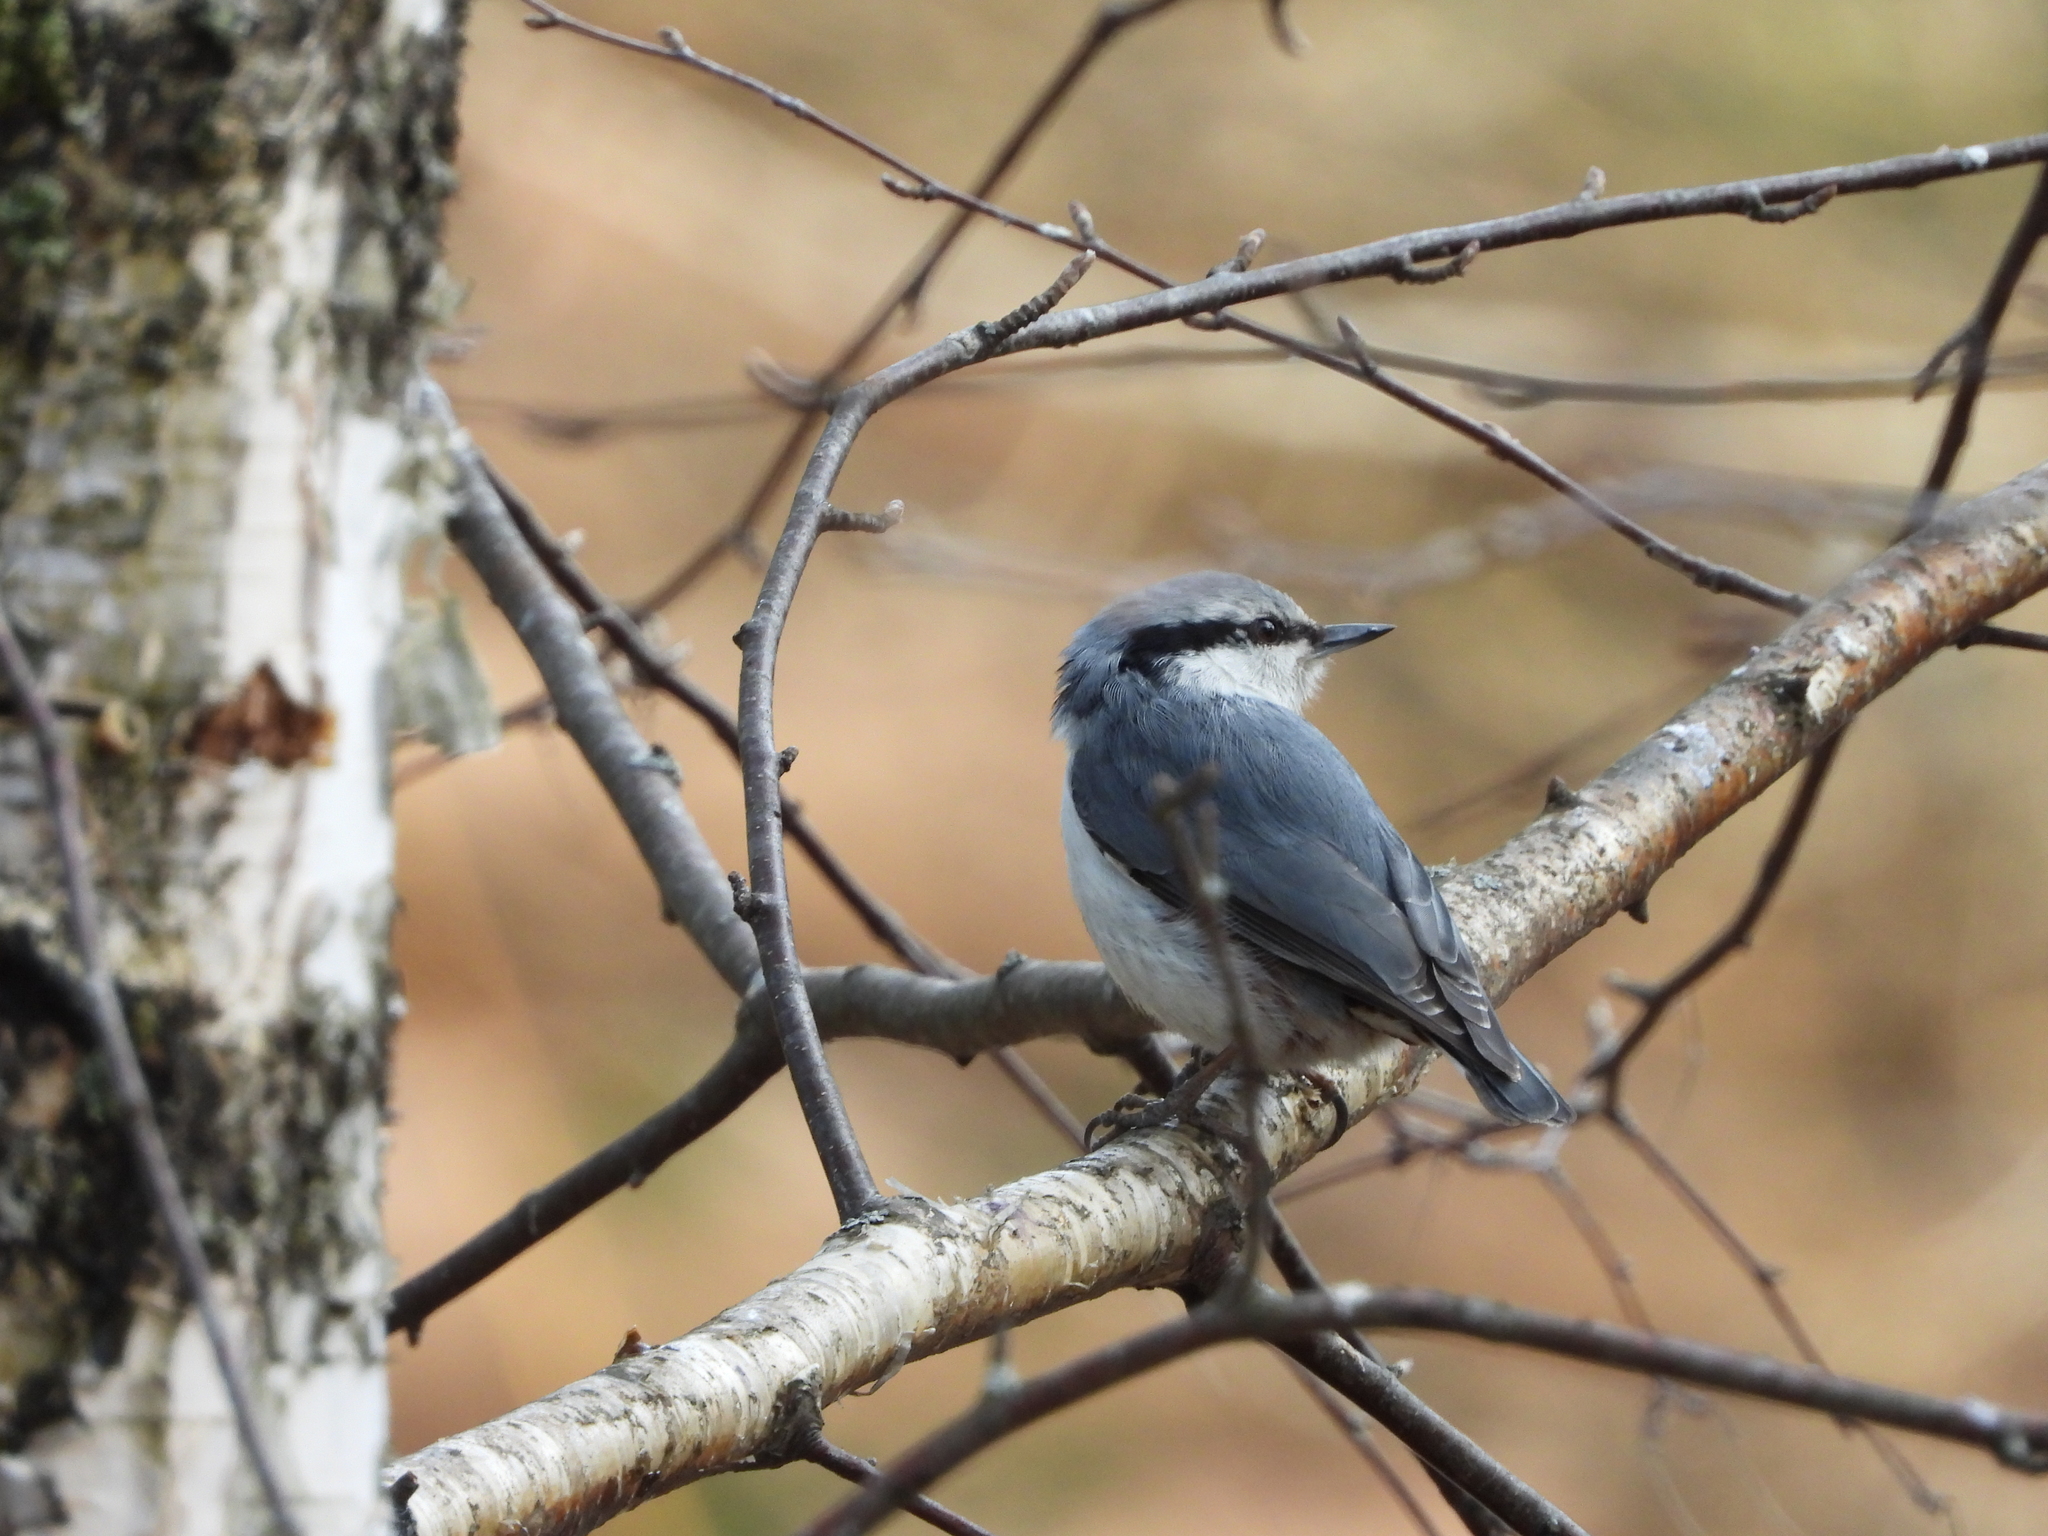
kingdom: Animalia
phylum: Chordata
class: Aves
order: Passeriformes
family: Sittidae
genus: Sitta
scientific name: Sitta europaea
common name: Eurasian nuthatch
